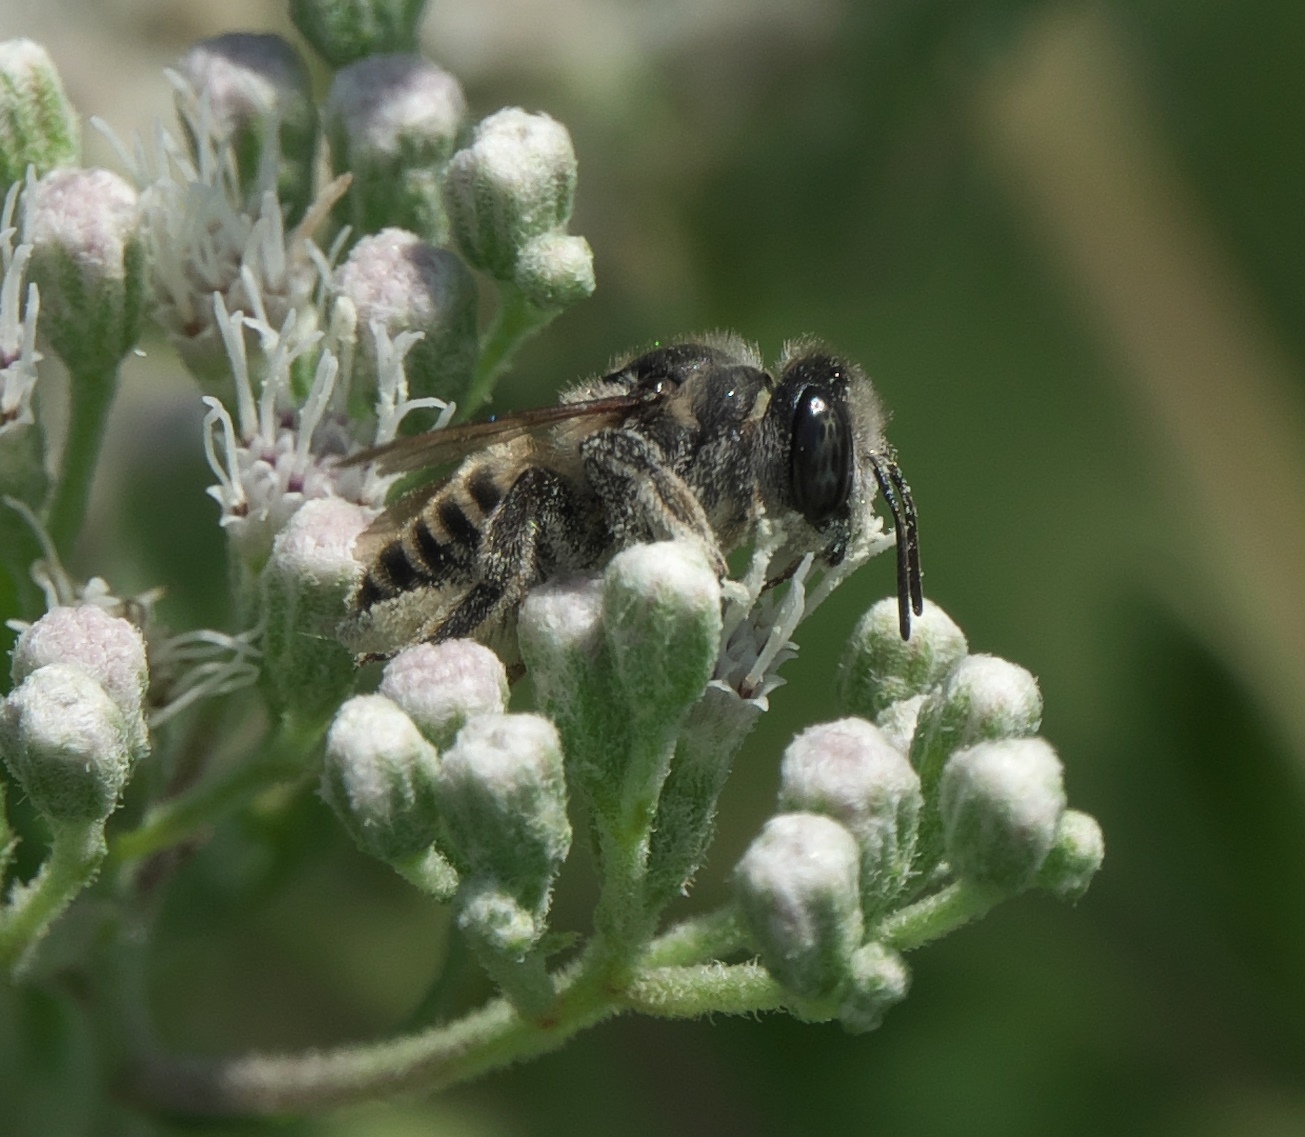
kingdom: Animalia
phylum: Arthropoda
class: Insecta
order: Hymenoptera
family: Megachilidae
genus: Megachile
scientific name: Megachile brevis
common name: Common little leaf-cutter bee
